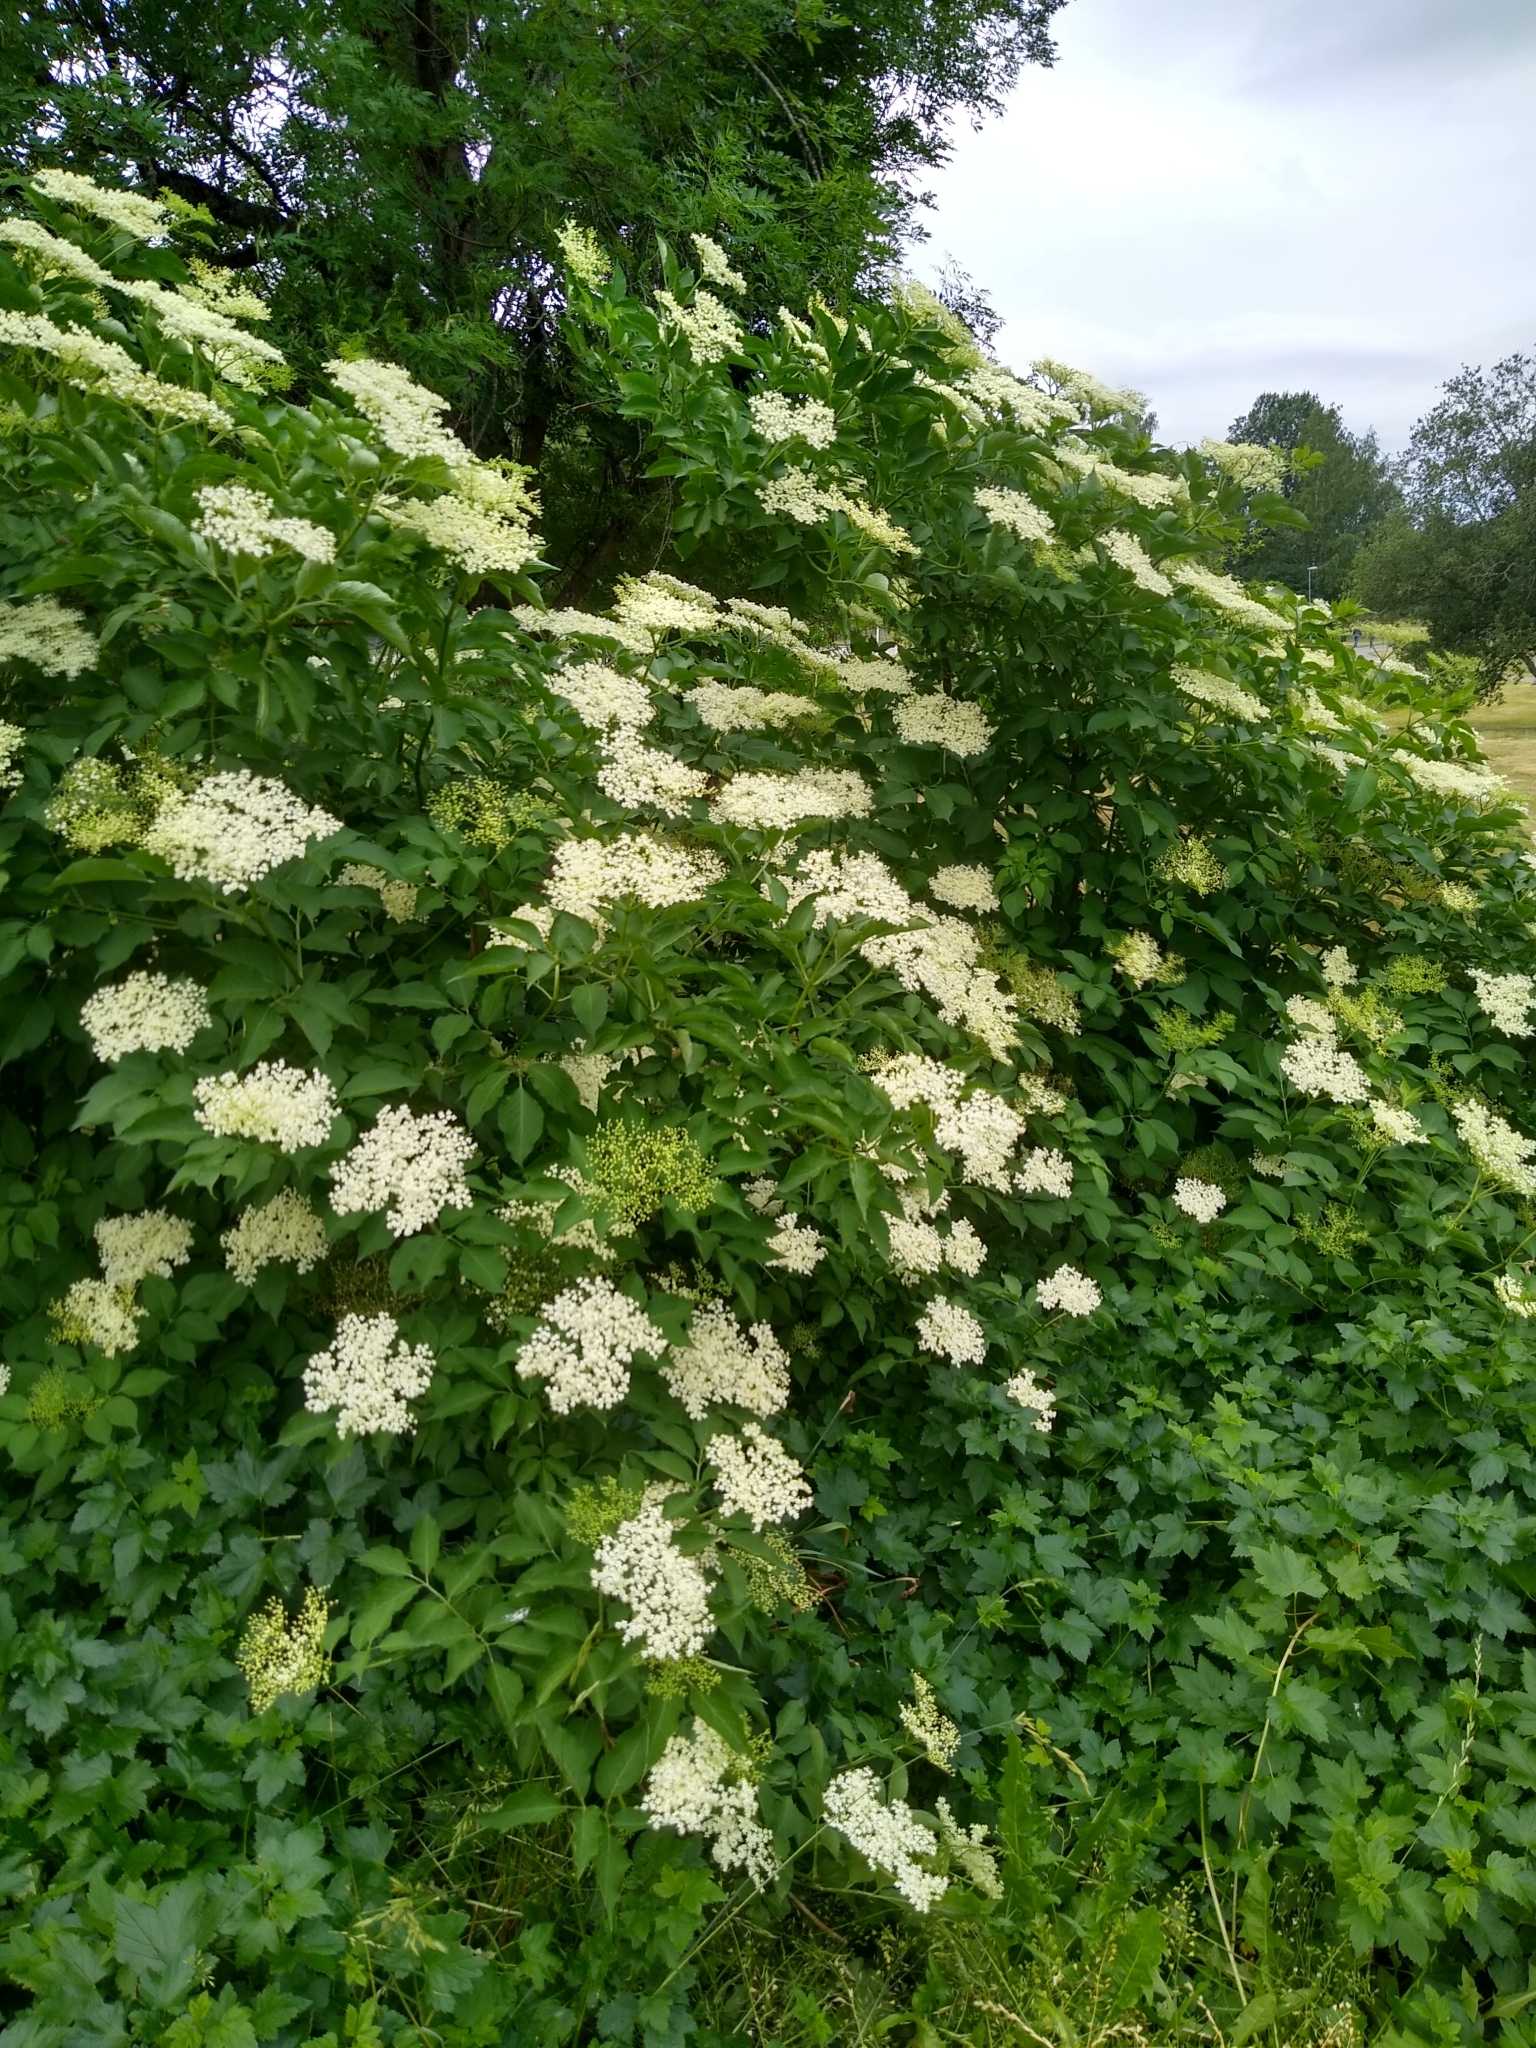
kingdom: Plantae
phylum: Tracheophyta
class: Magnoliopsida
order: Dipsacales
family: Viburnaceae
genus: Sambucus
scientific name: Sambucus nigra
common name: Elder
